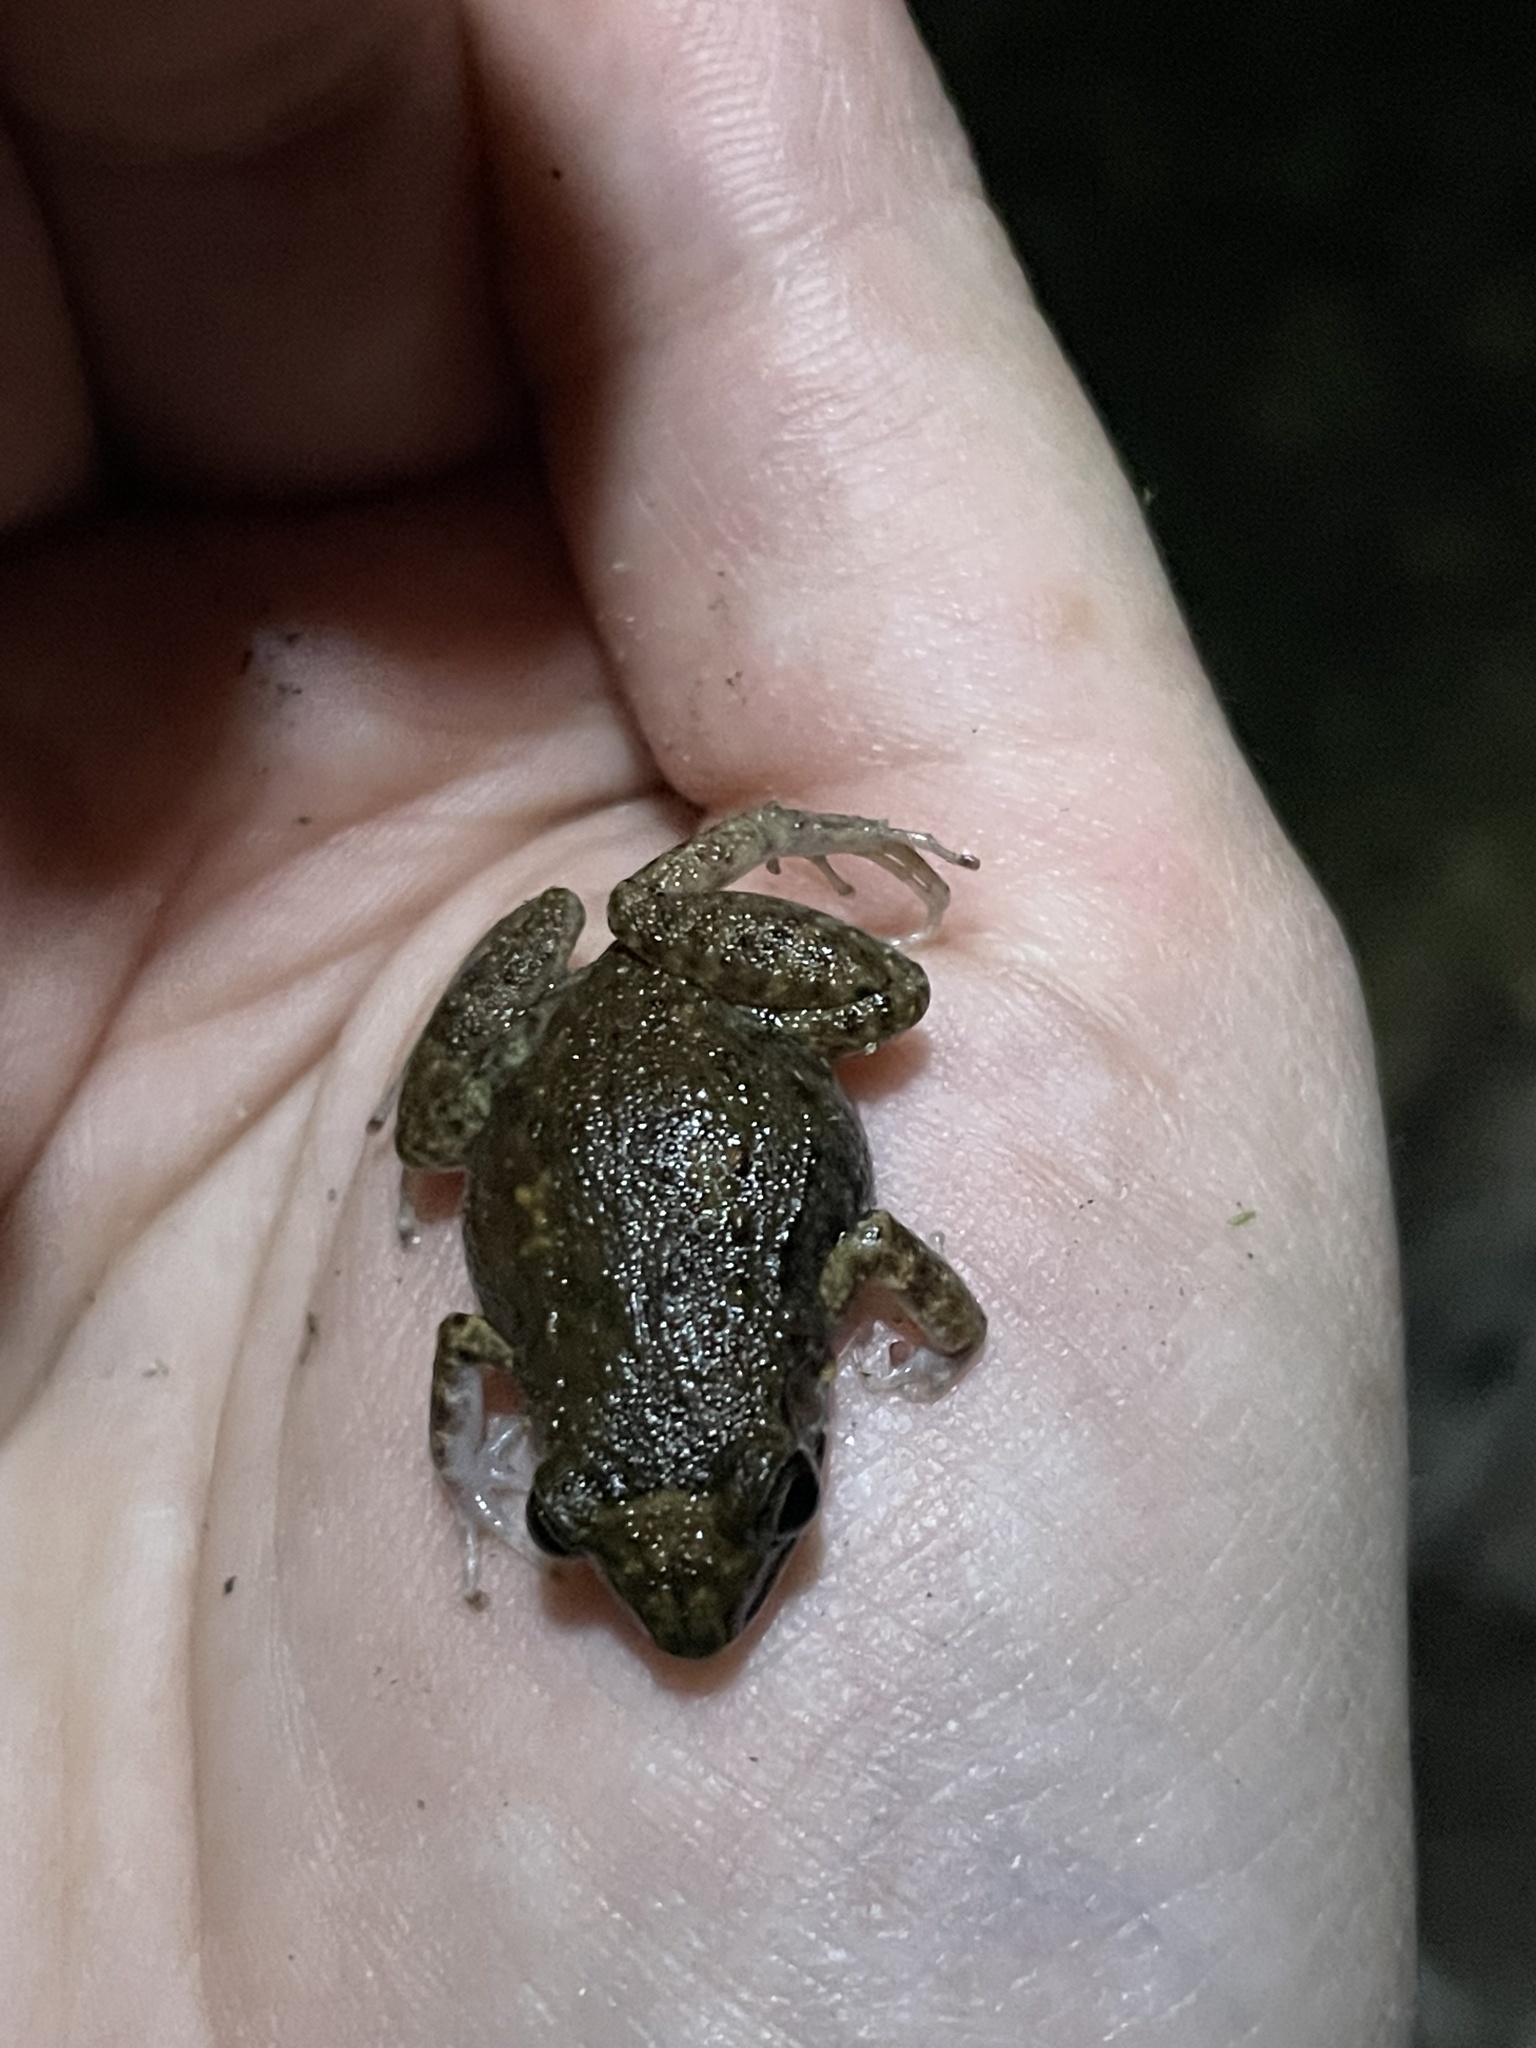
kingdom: Animalia
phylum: Chordata
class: Amphibia
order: Anura
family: Eleutherodactylidae
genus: Eleutherodactylus
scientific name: Eleutherodactylus planirostris
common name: Greenhouse frog
